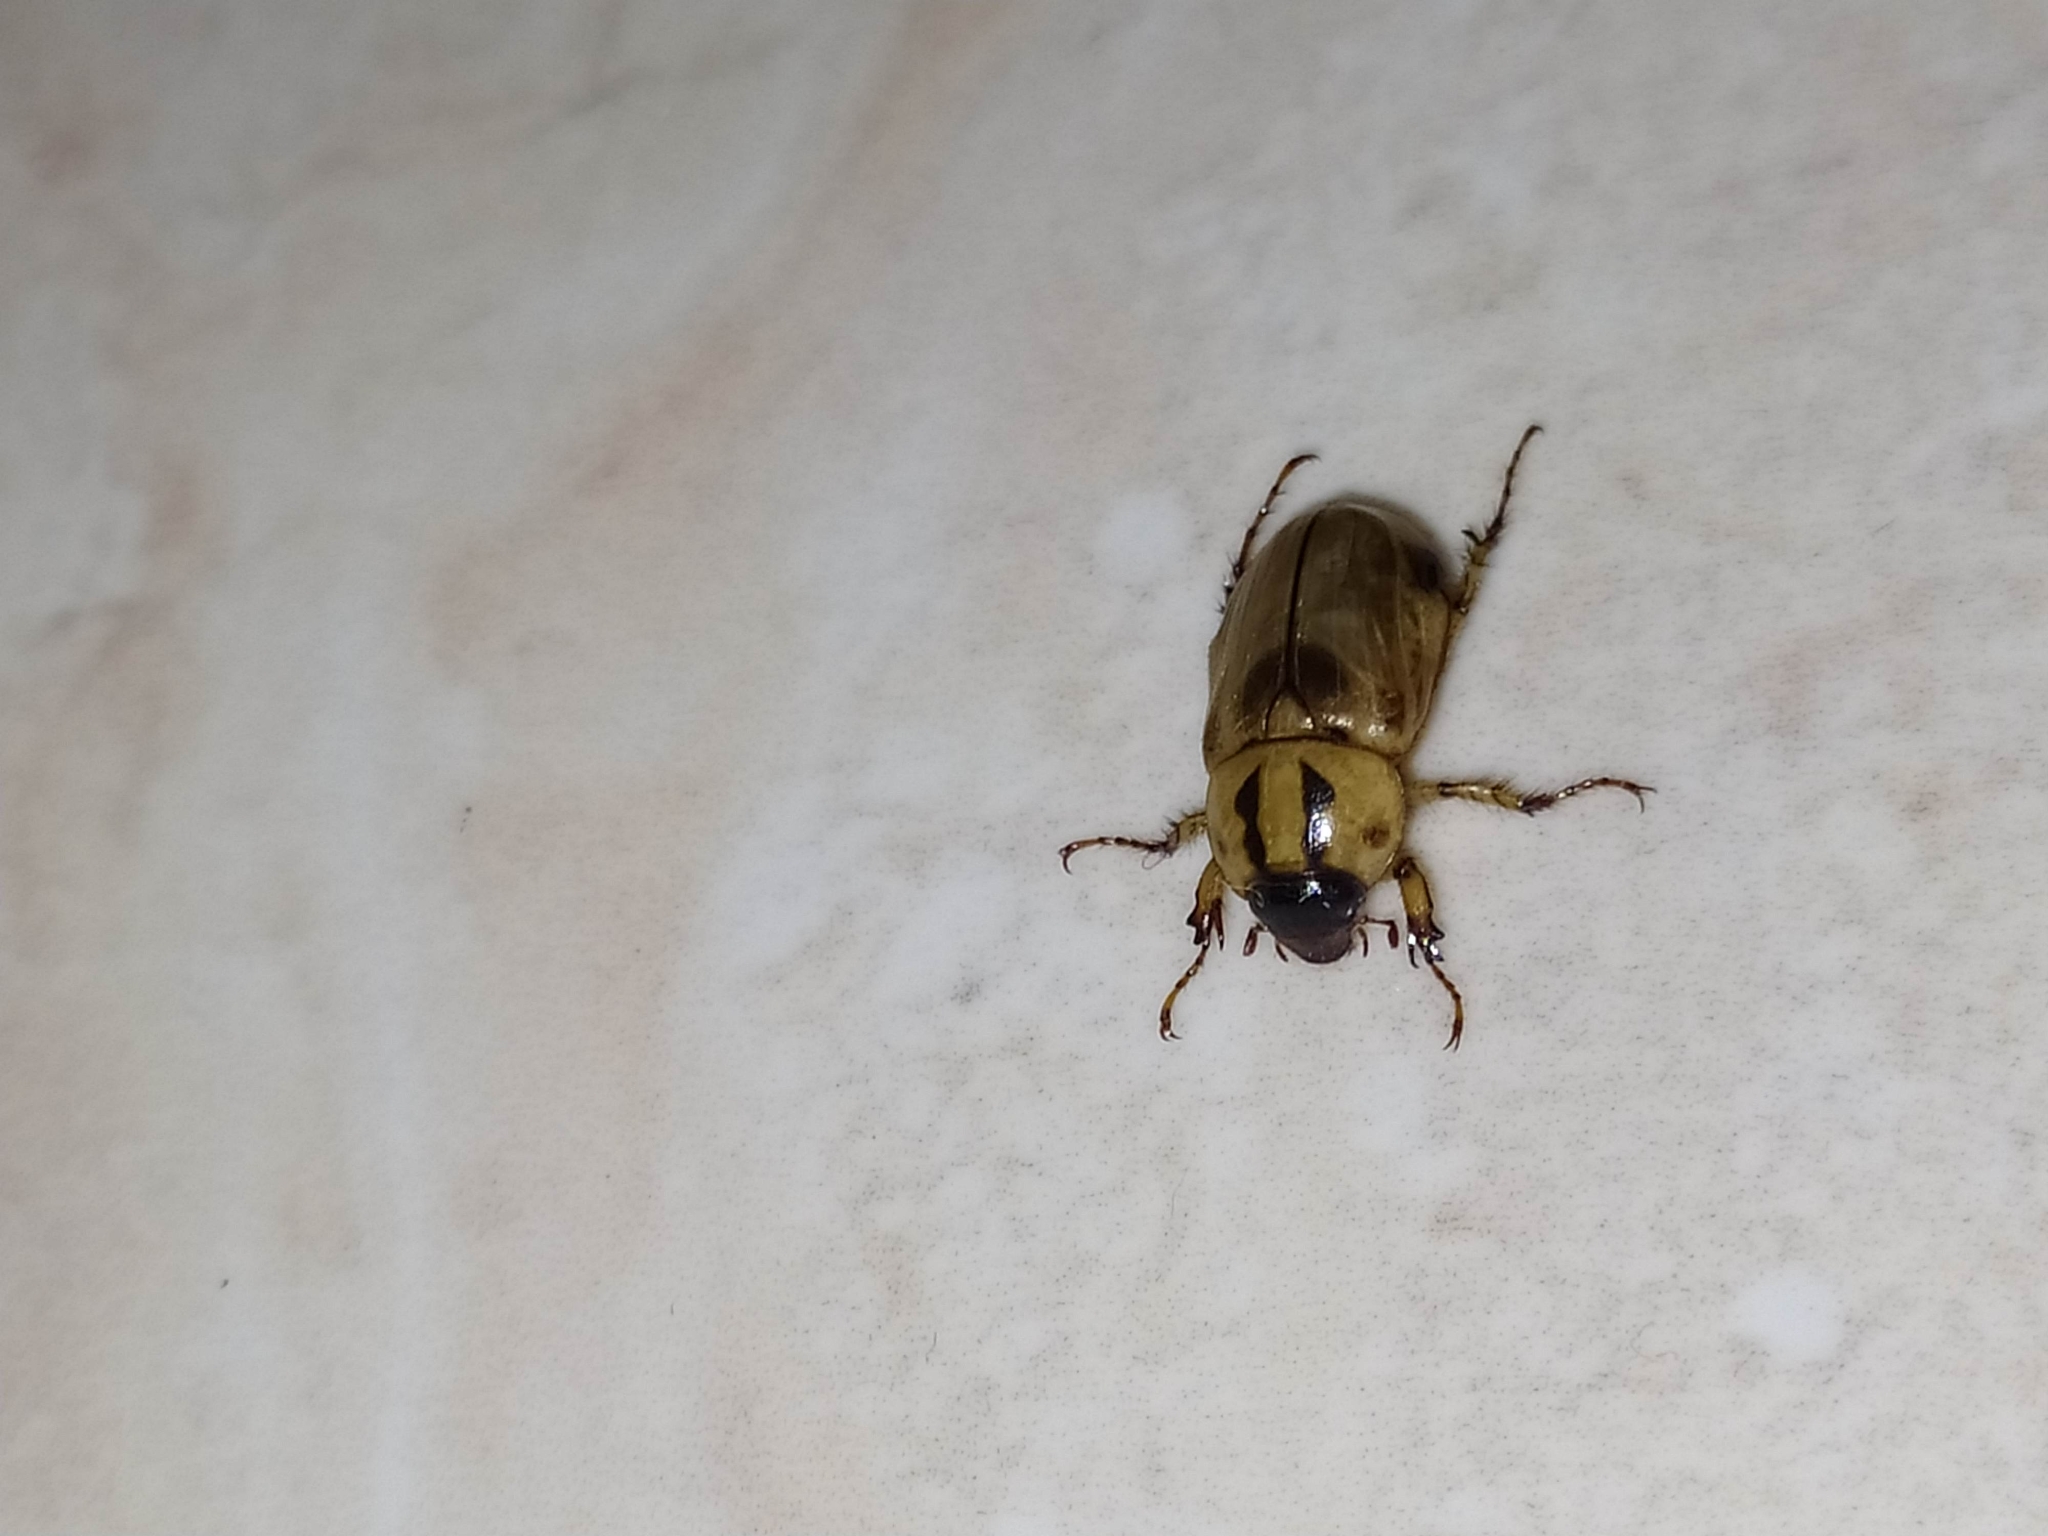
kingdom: Animalia
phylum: Arthropoda
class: Insecta
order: Coleoptera
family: Scarabaeidae
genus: Cyclocephala
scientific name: Cyclocephala amazona
